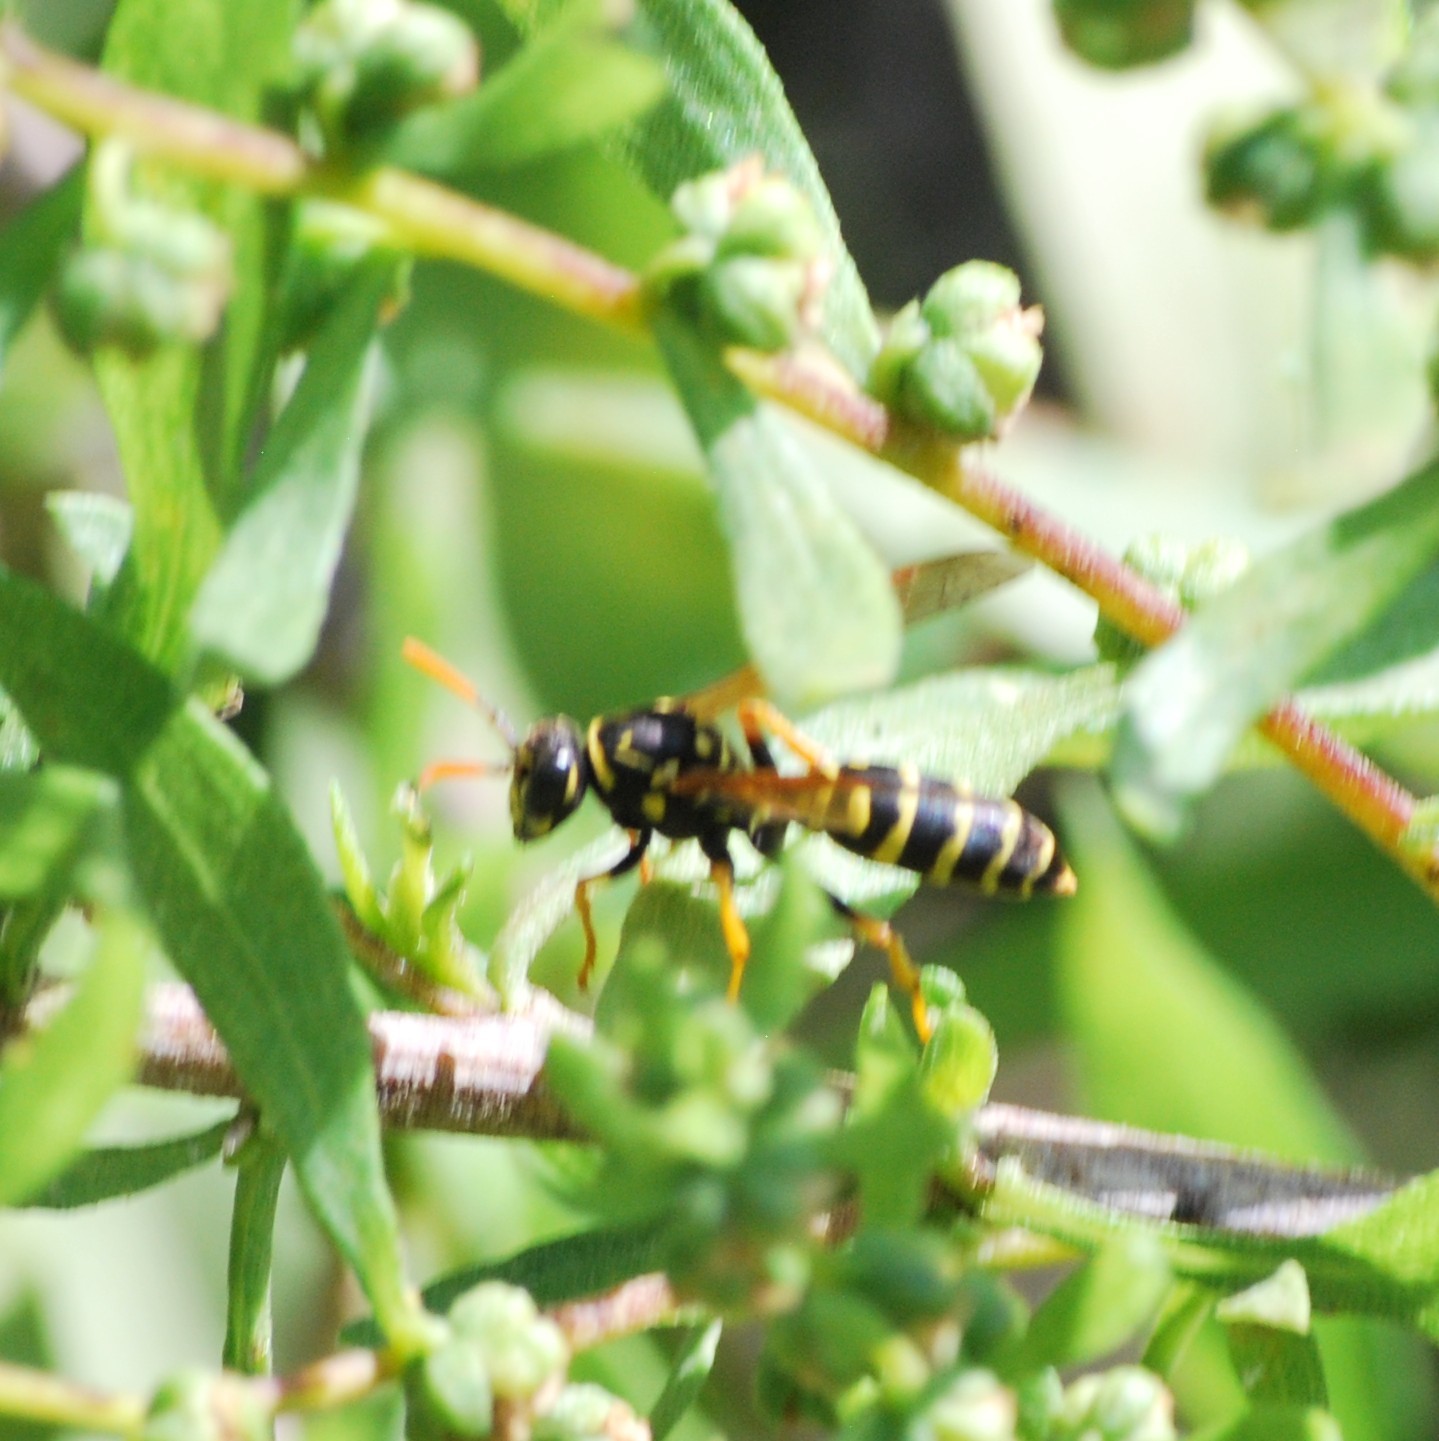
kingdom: Animalia
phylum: Arthropoda
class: Insecta
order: Hymenoptera
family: Eumenidae
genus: Polistes
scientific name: Polistes dominula
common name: Paper wasp
